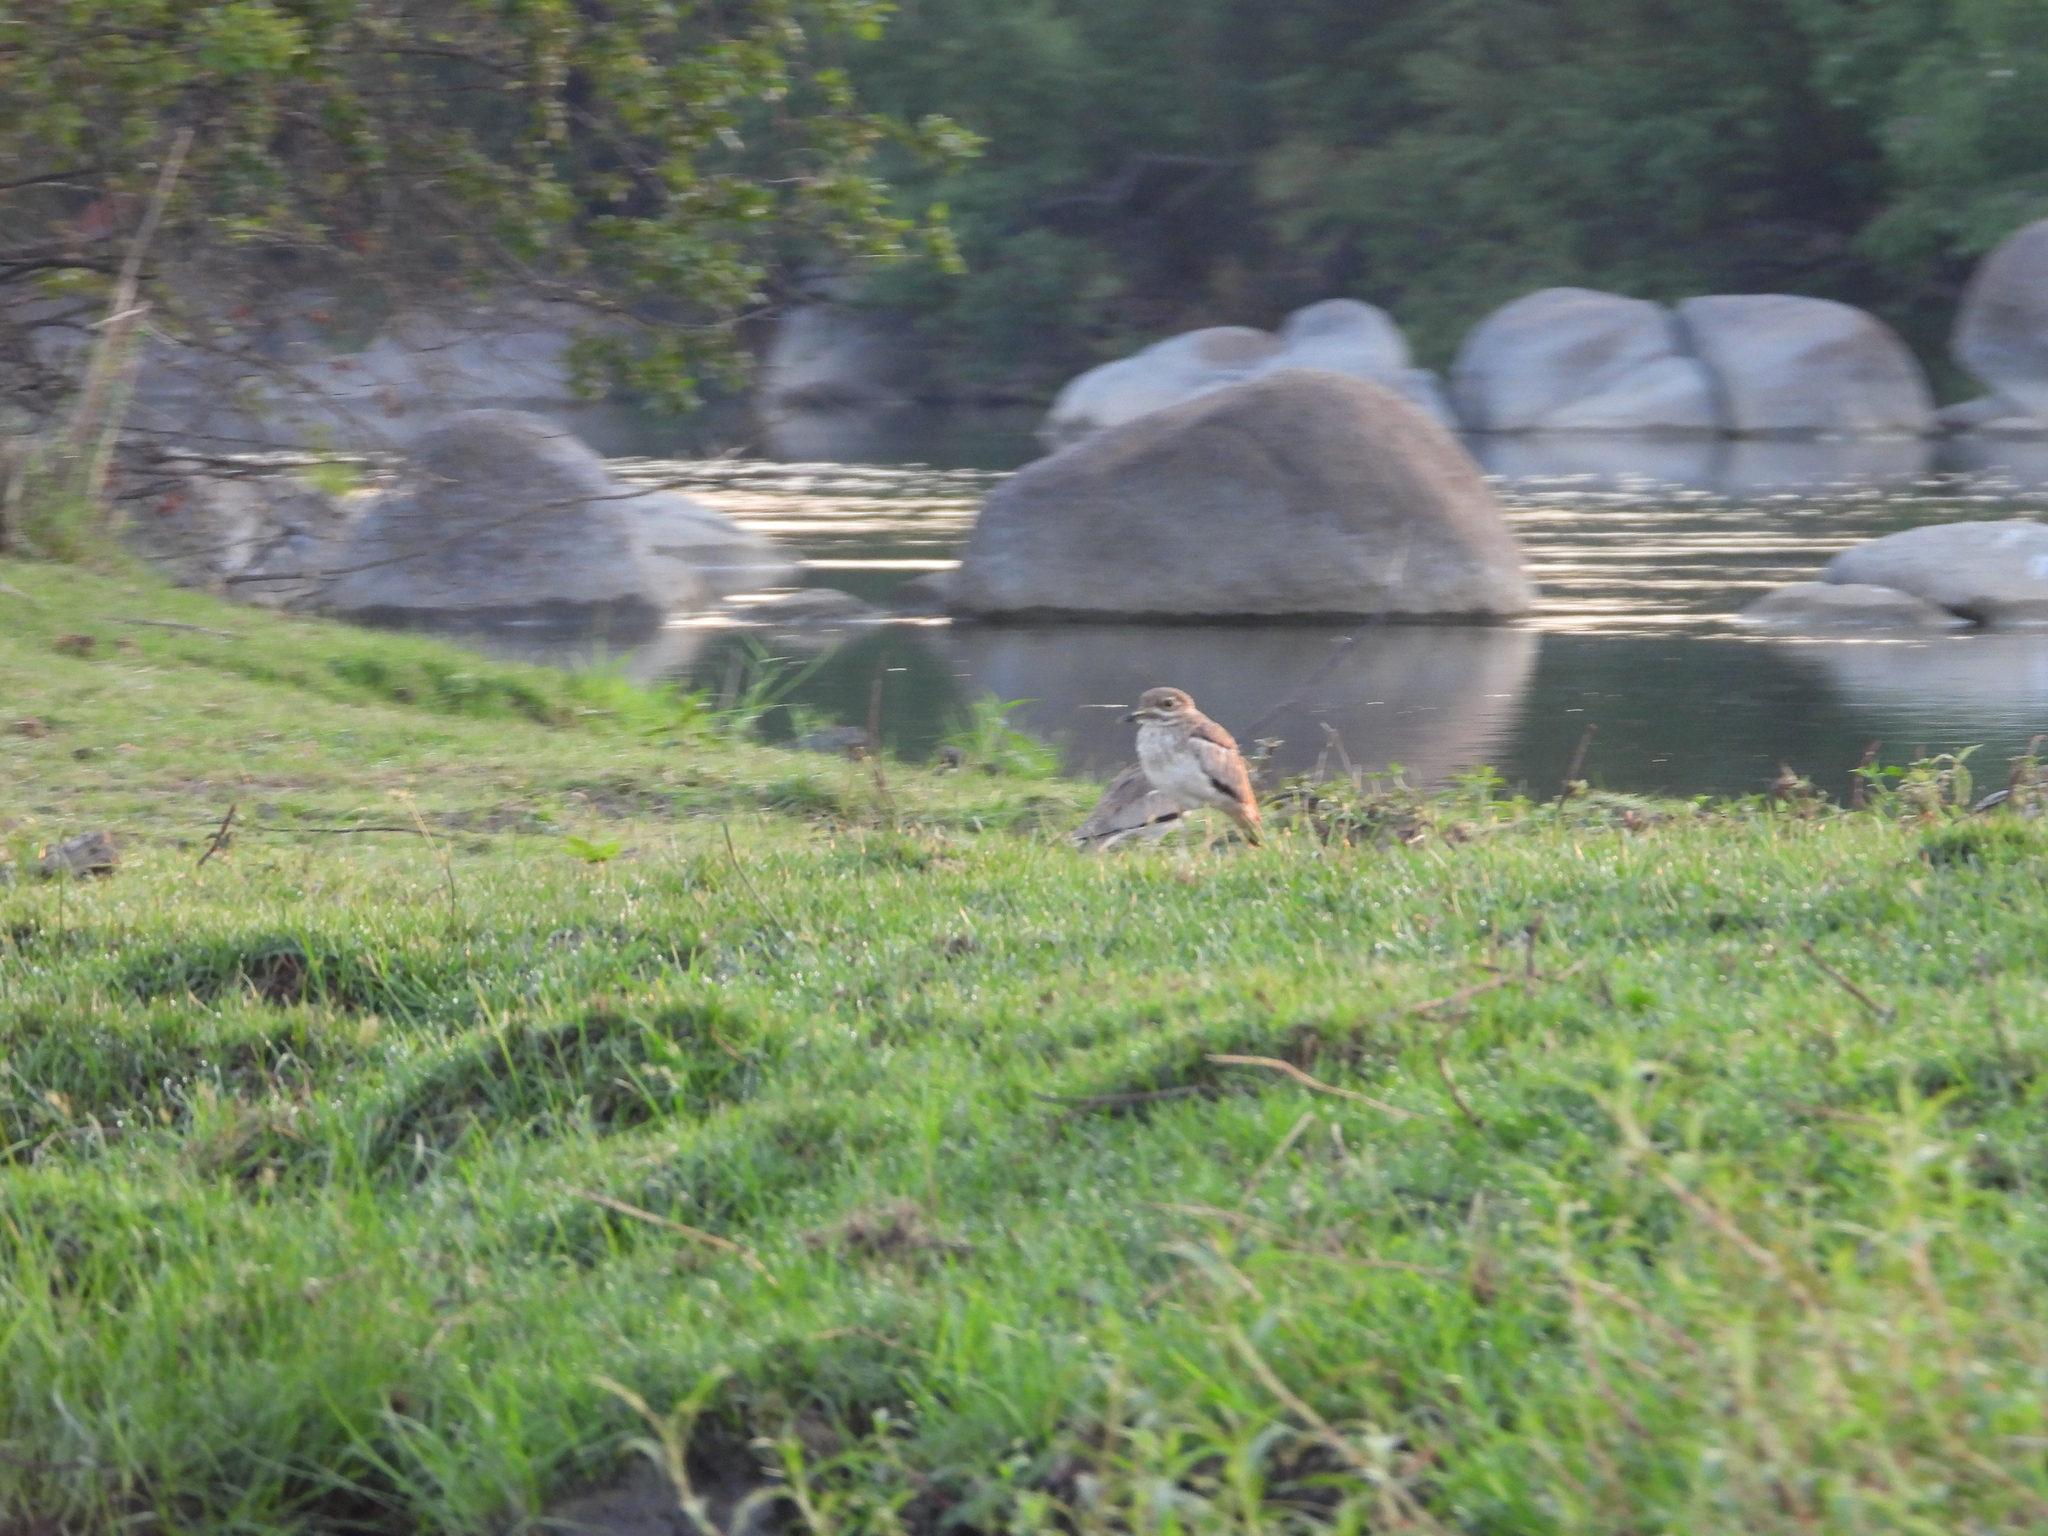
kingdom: Animalia
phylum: Chordata
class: Aves
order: Charadriiformes
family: Burhinidae
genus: Burhinus
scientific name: Burhinus vermiculatus
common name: Water thick-knee
